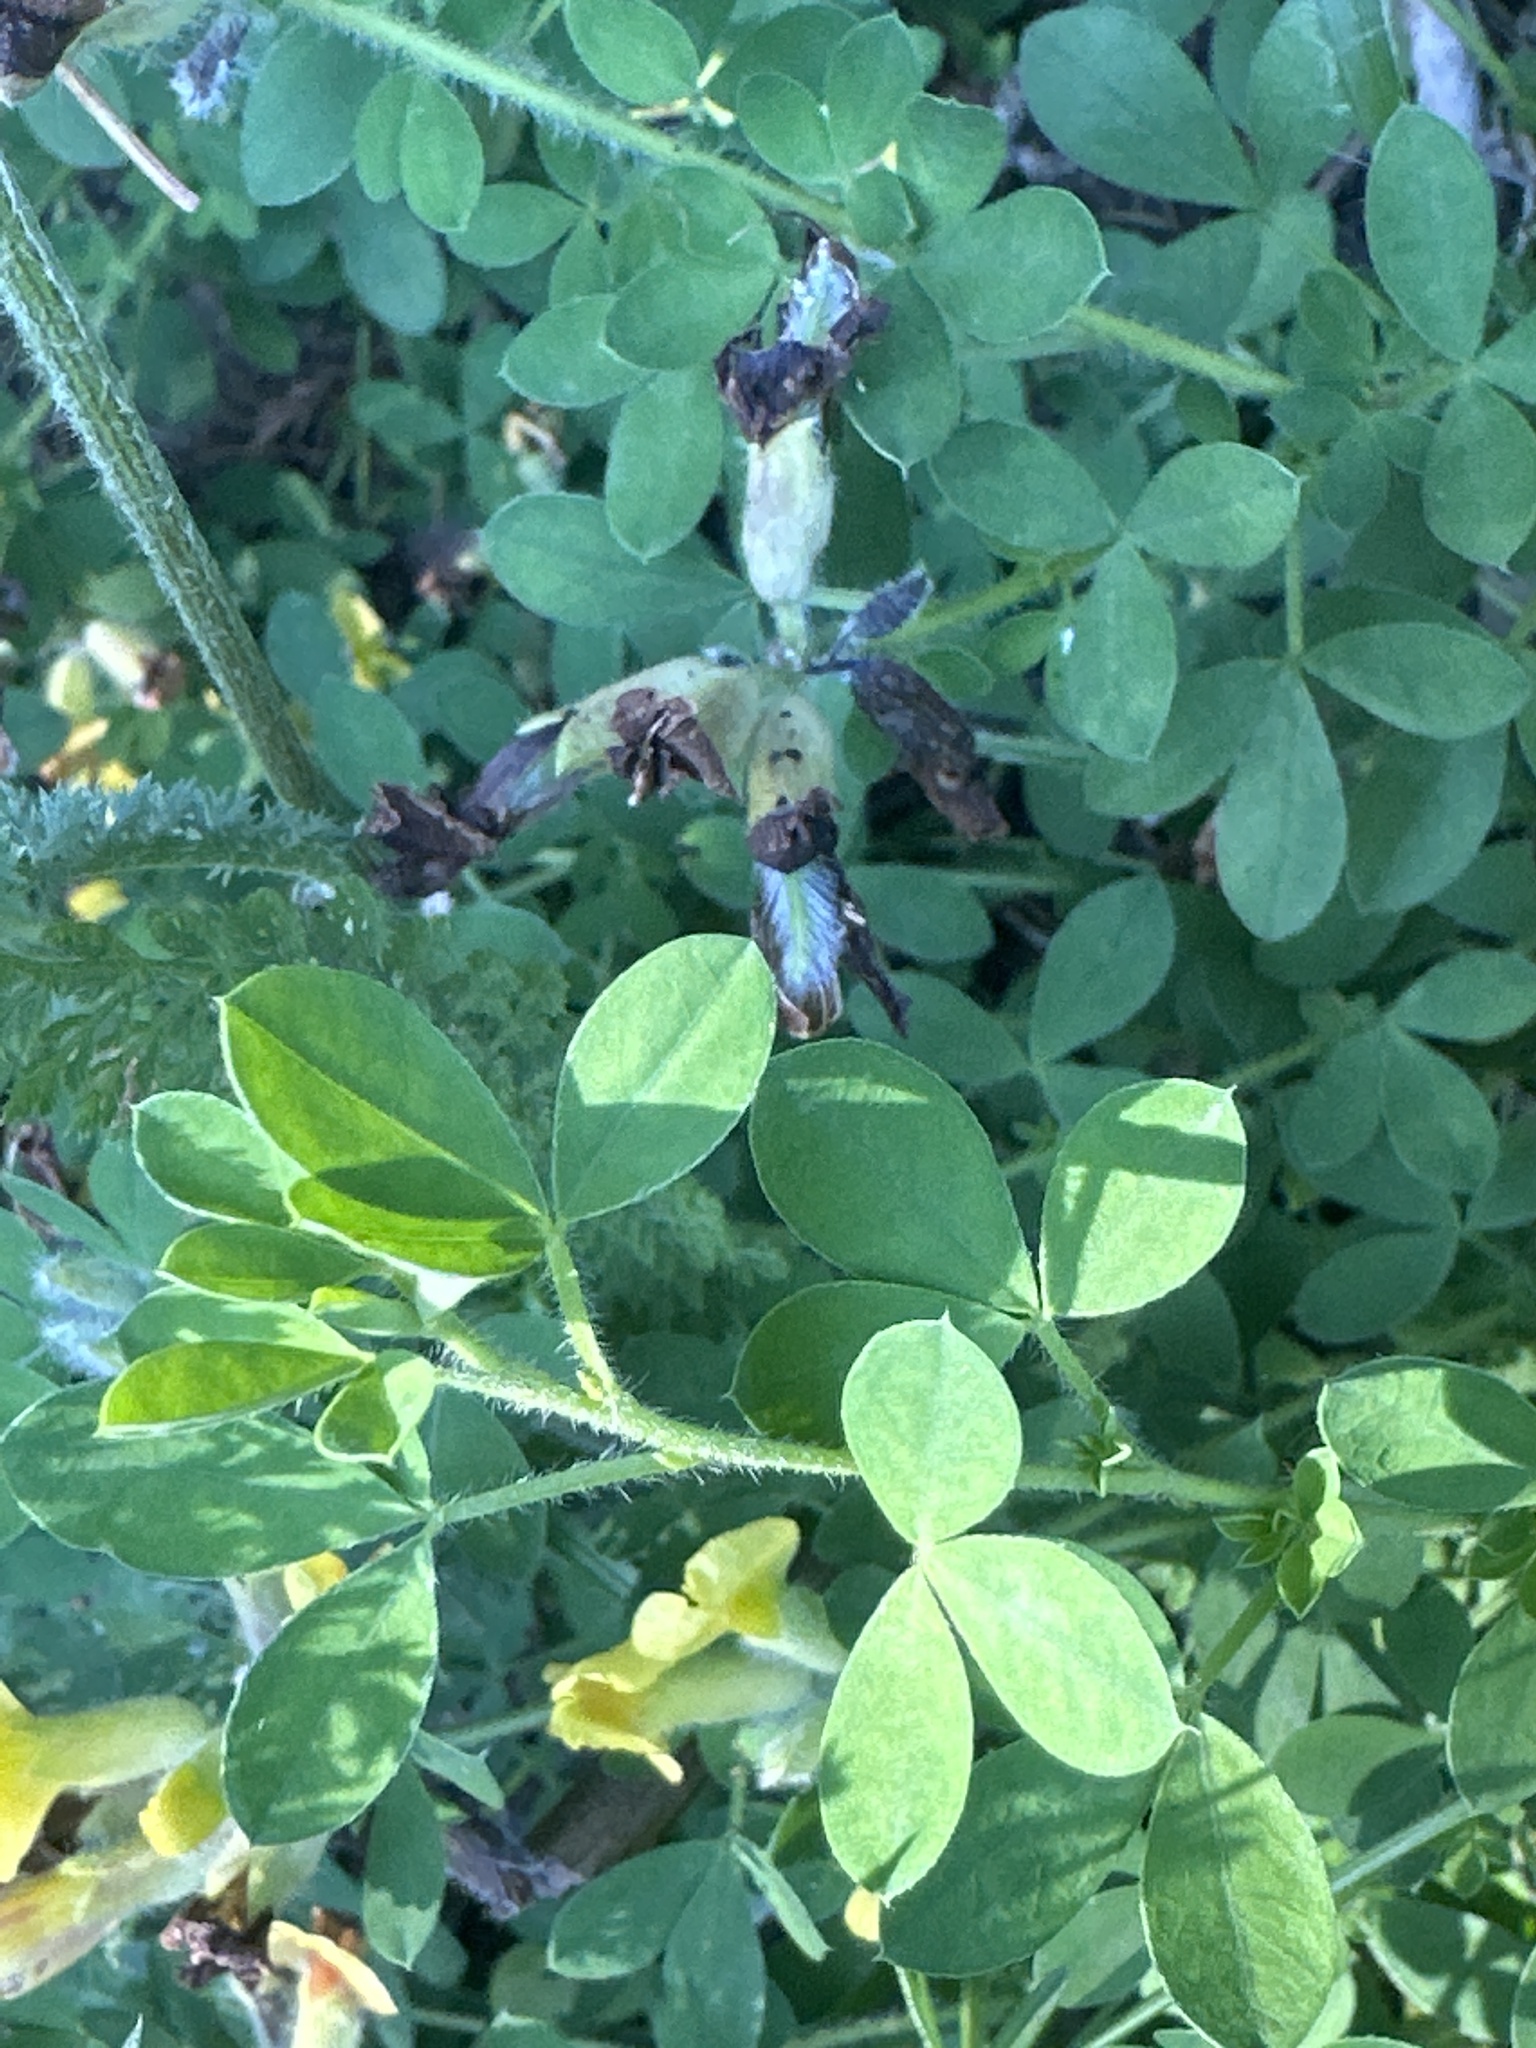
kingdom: Plantae
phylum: Tracheophyta
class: Magnoliopsida
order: Fabales
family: Fabaceae
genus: Lotus
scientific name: Lotus corniculatus
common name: Common bird's-foot-trefoil
